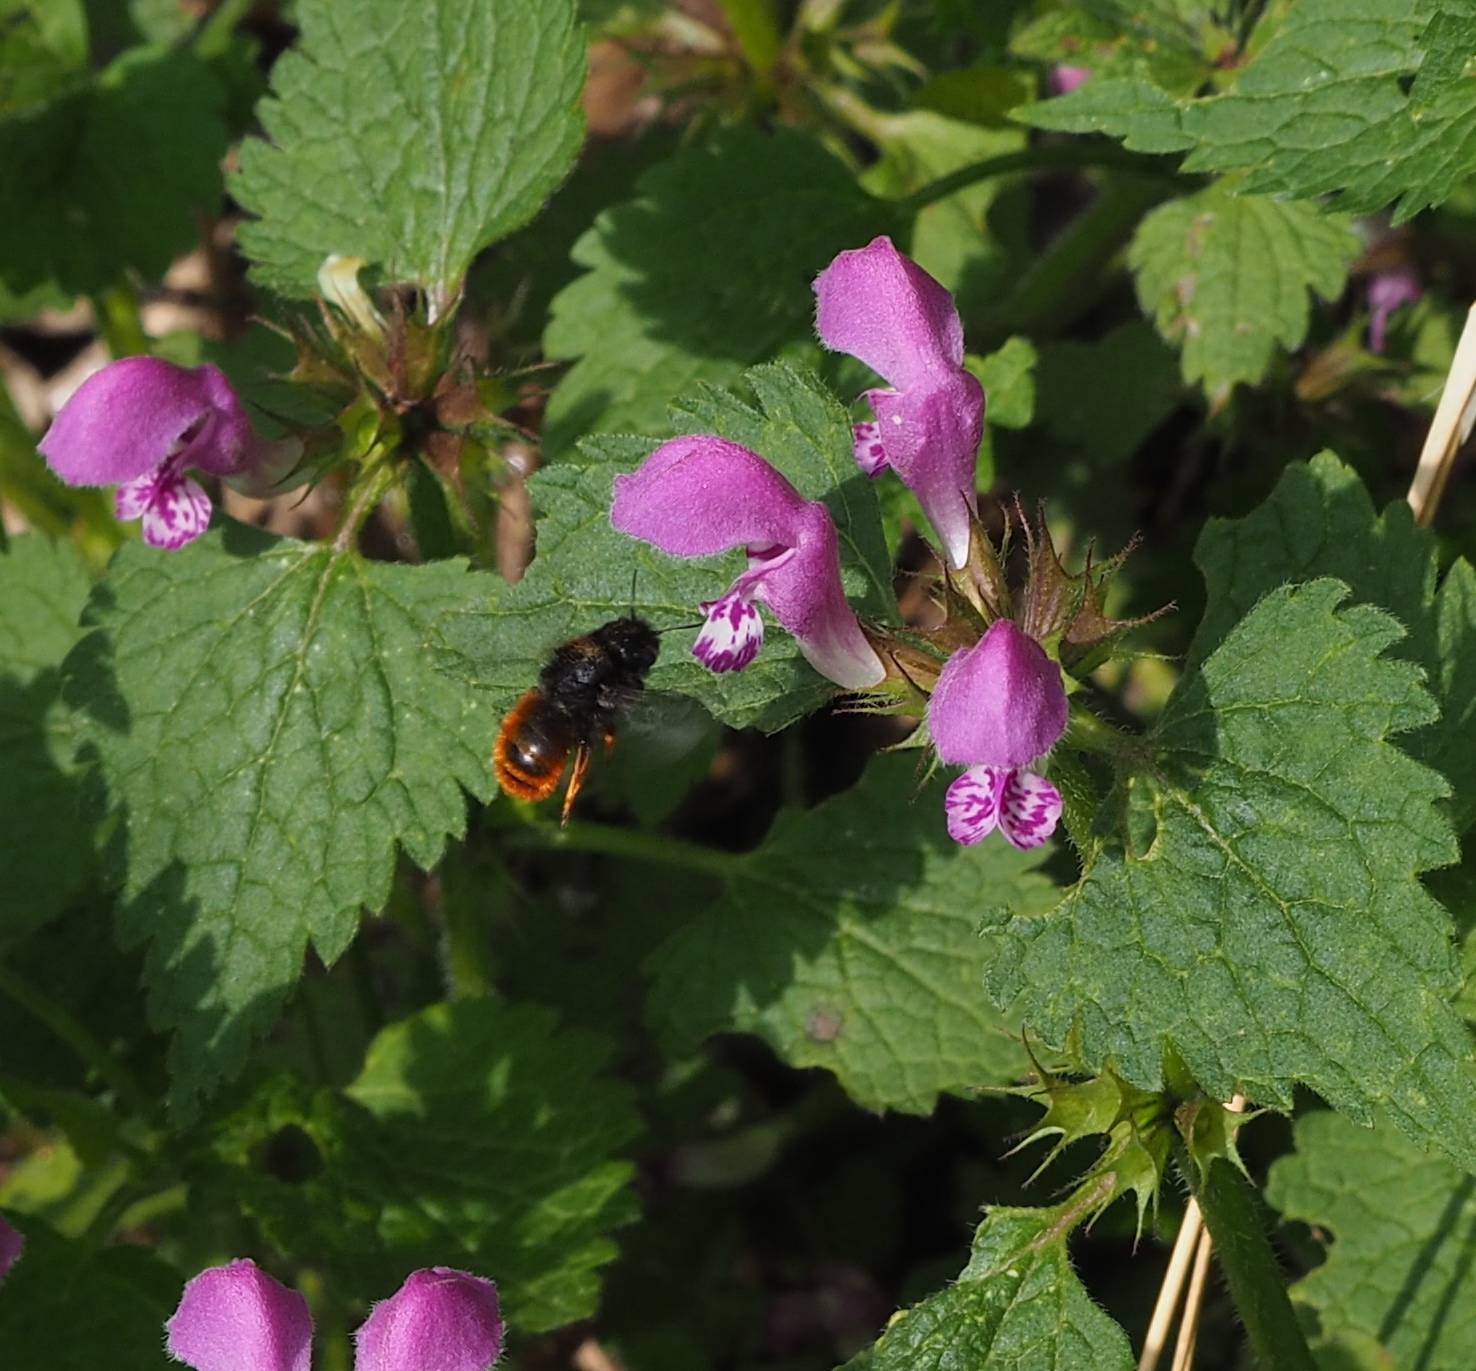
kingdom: Animalia
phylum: Arthropoda
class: Insecta
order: Hymenoptera
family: Megachilidae
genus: Osmia
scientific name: Osmia bicolor
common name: Red-tailed mason bee
